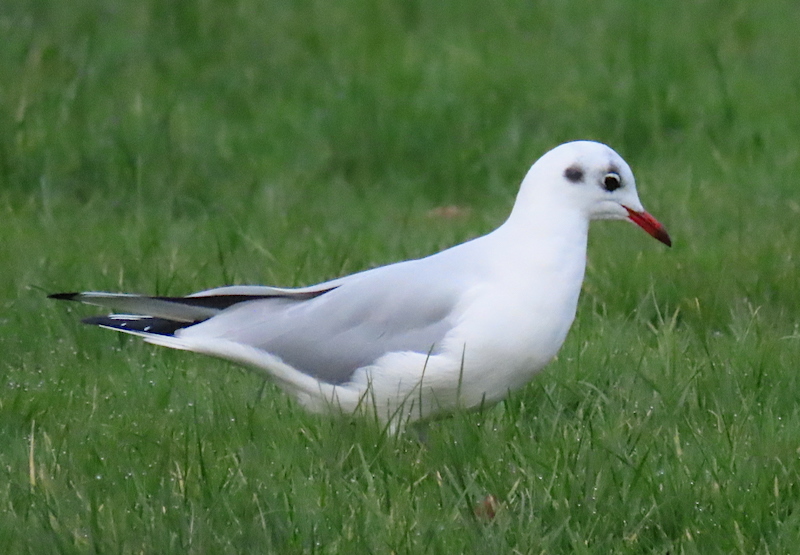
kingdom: Animalia
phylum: Chordata
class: Aves
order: Charadriiformes
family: Laridae
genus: Chroicocephalus
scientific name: Chroicocephalus ridibundus
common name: Black-headed gull
